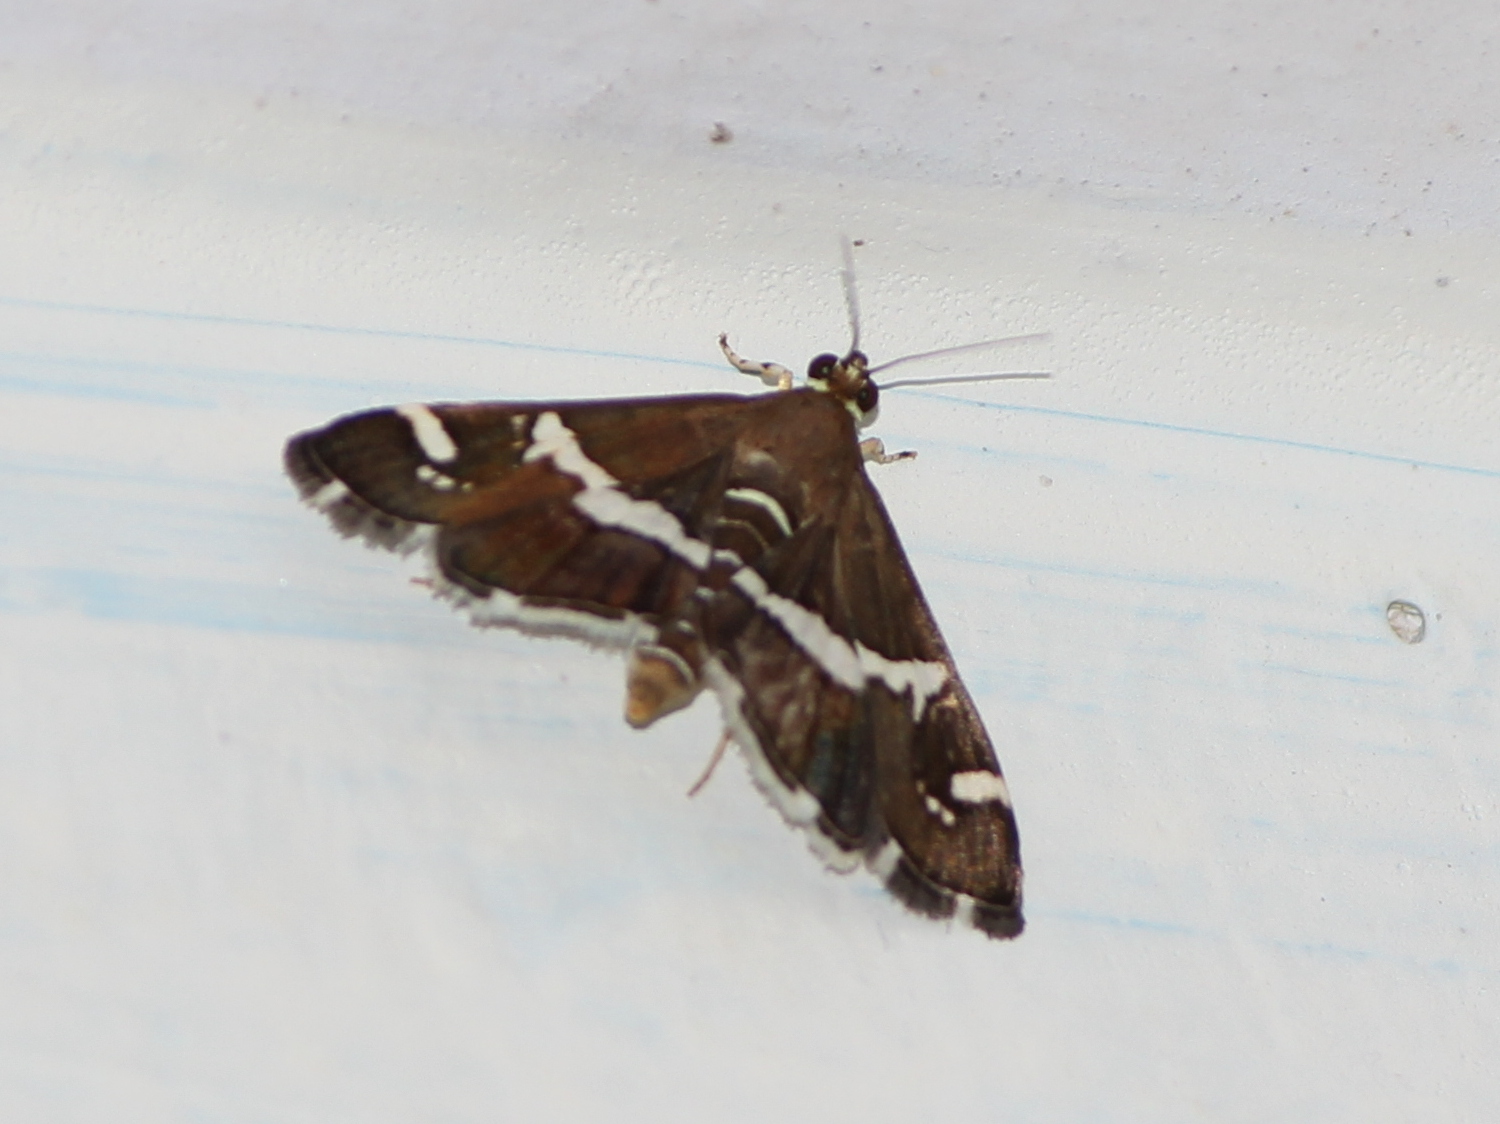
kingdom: Animalia
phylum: Arthropoda
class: Insecta
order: Lepidoptera
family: Crambidae
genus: Spoladea
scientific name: Spoladea recurvalis
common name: Beet webworm moth
